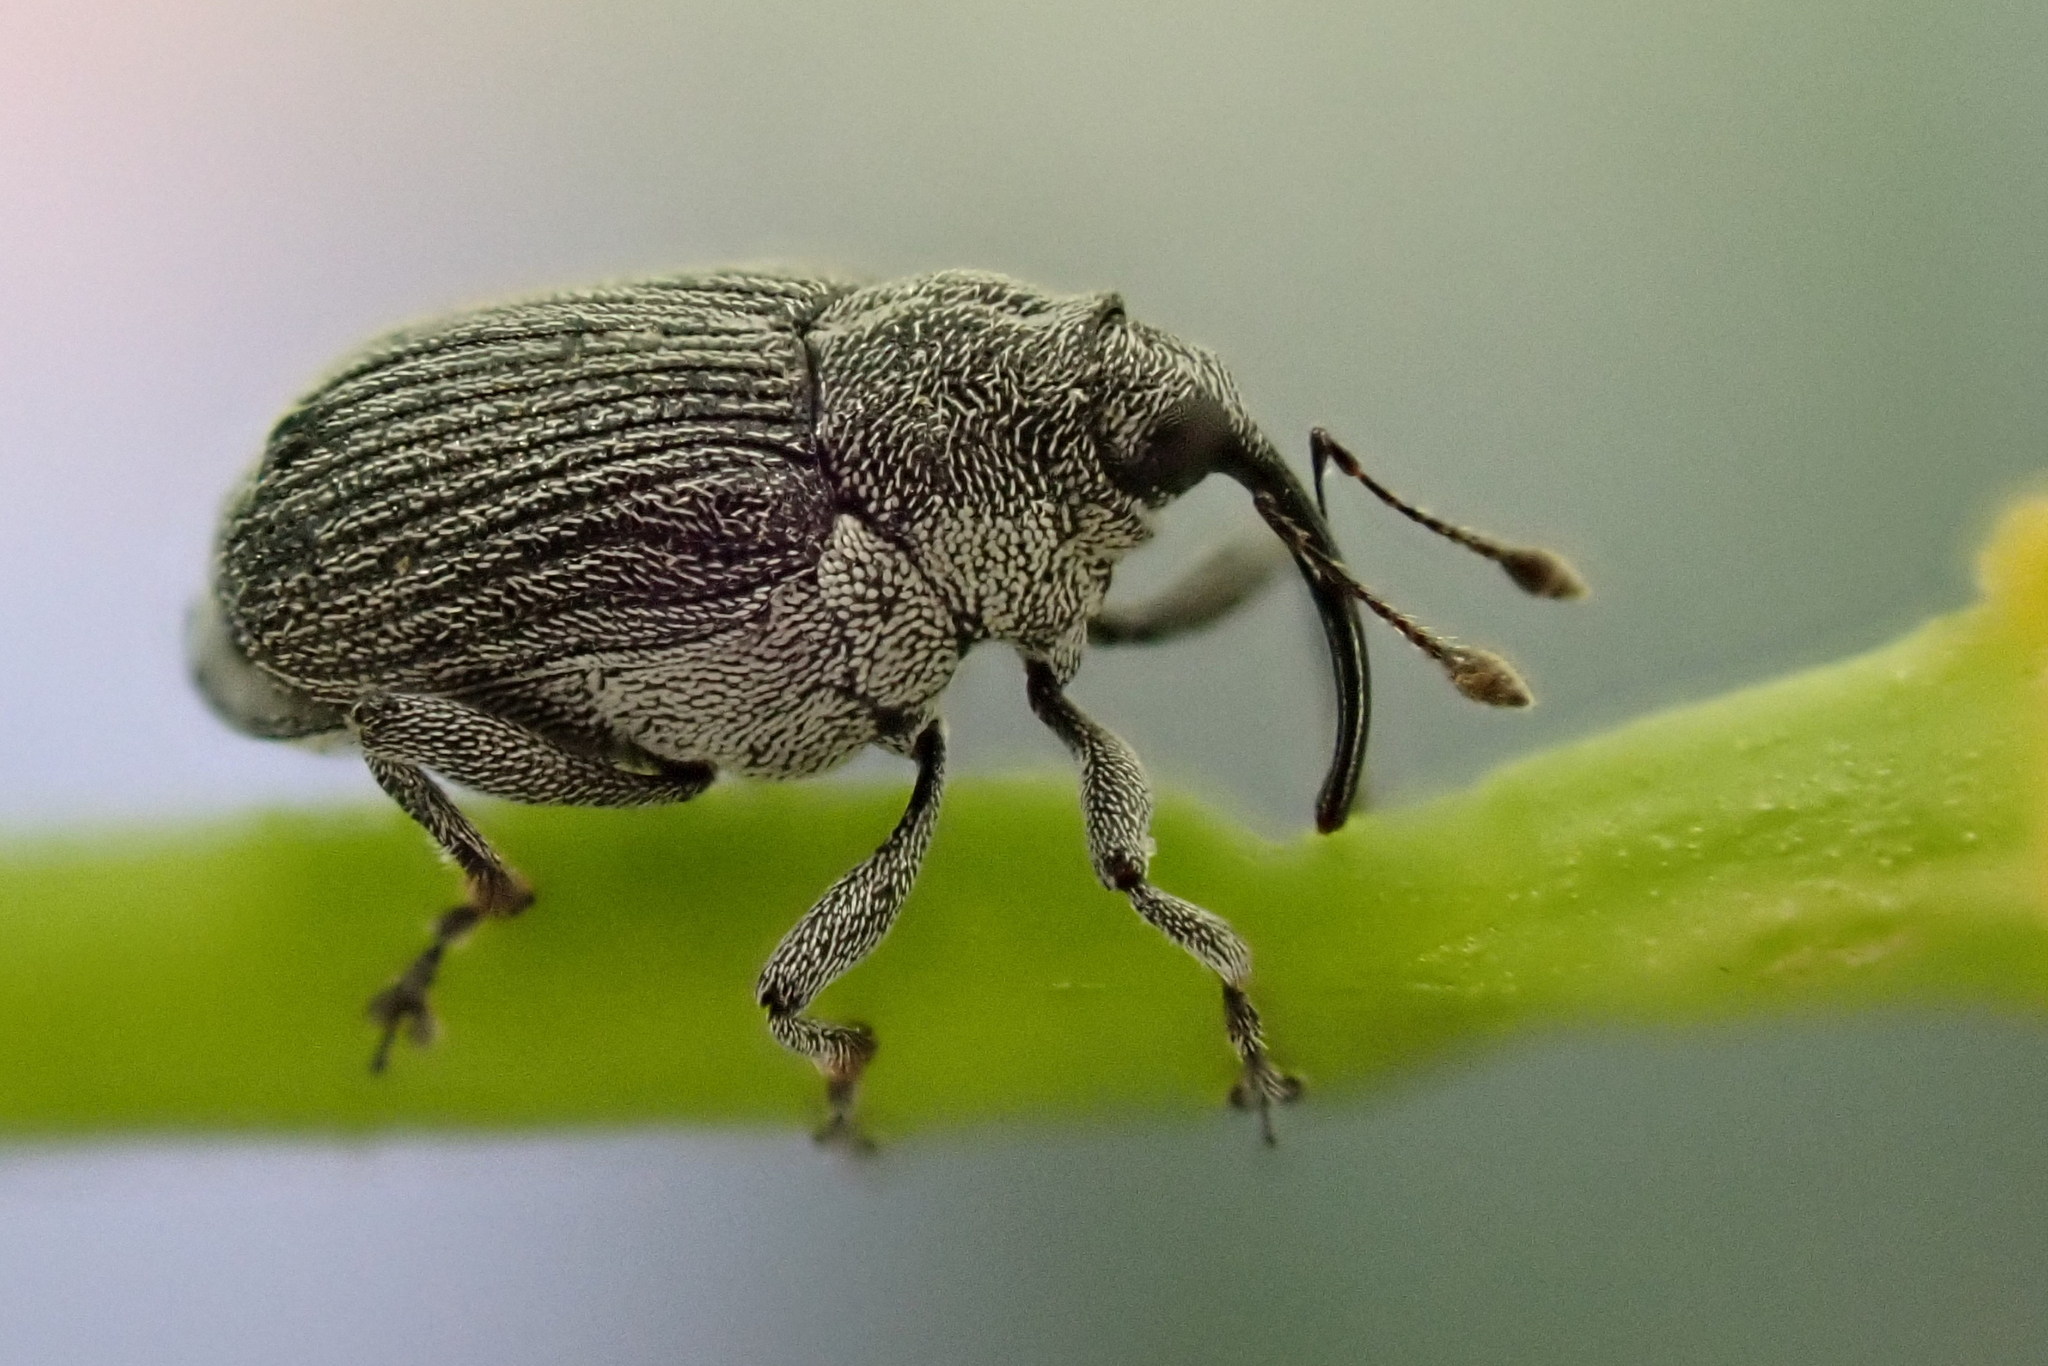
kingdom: Animalia
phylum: Arthropoda
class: Insecta
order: Coleoptera
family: Curculionidae
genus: Ceutorhynchus
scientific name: Ceutorhynchus obstrictus
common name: Cabbage seed weevil
